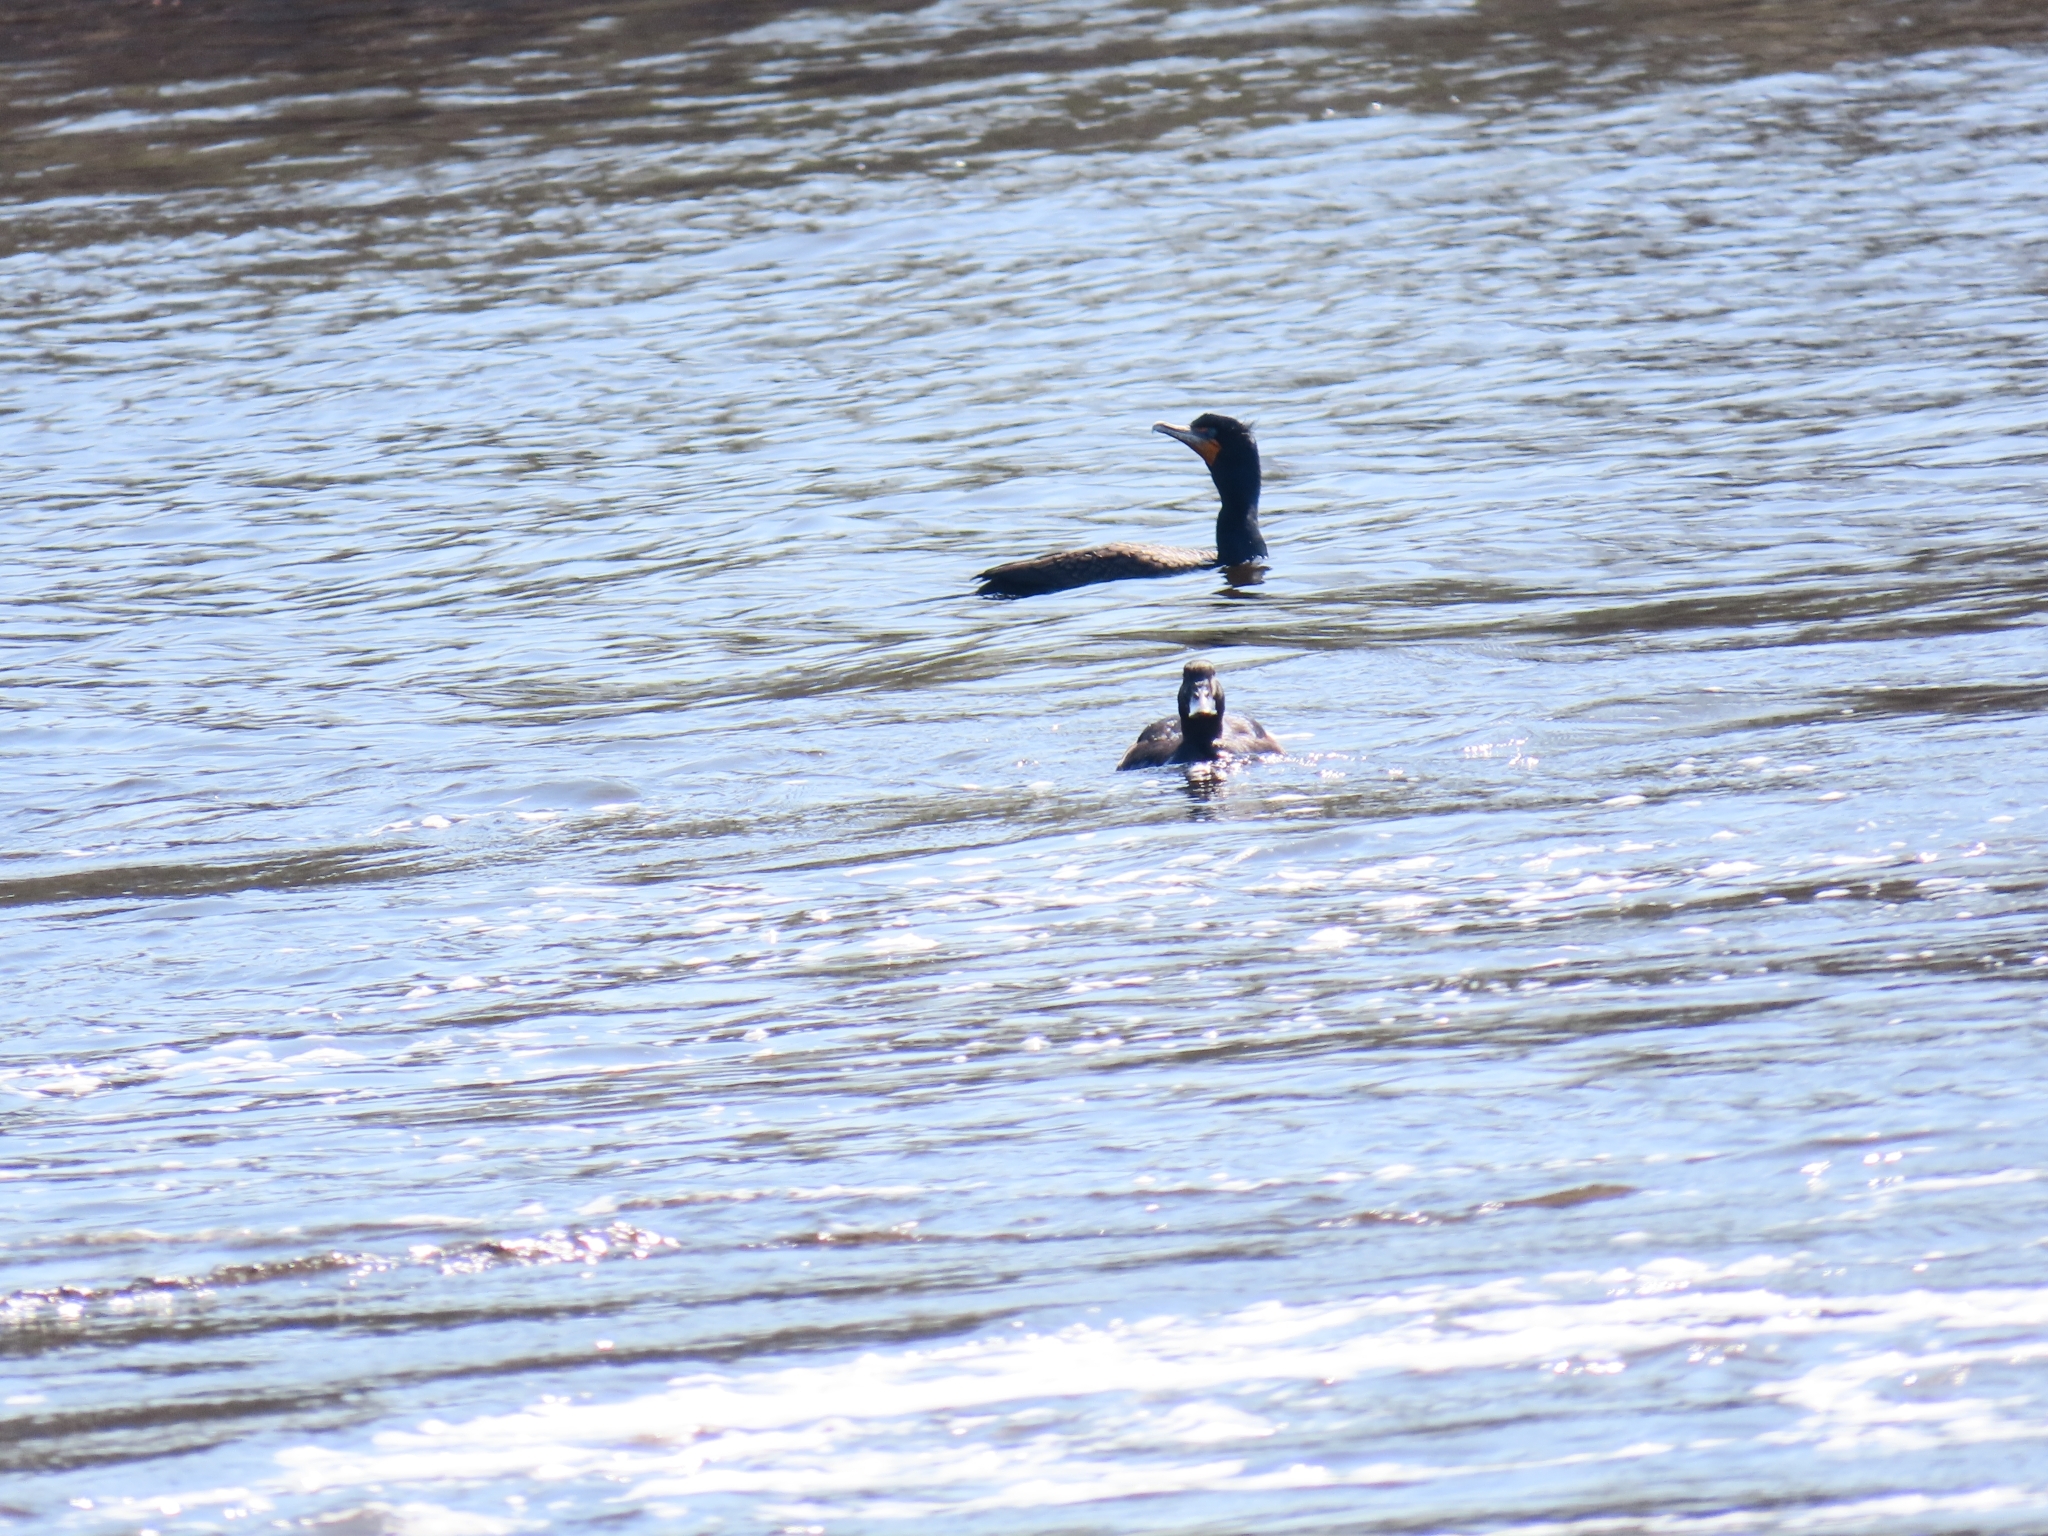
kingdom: Animalia
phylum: Chordata
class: Aves
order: Suliformes
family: Phalacrocoracidae
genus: Phalacrocorax
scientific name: Phalacrocorax auritus
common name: Double-crested cormorant
